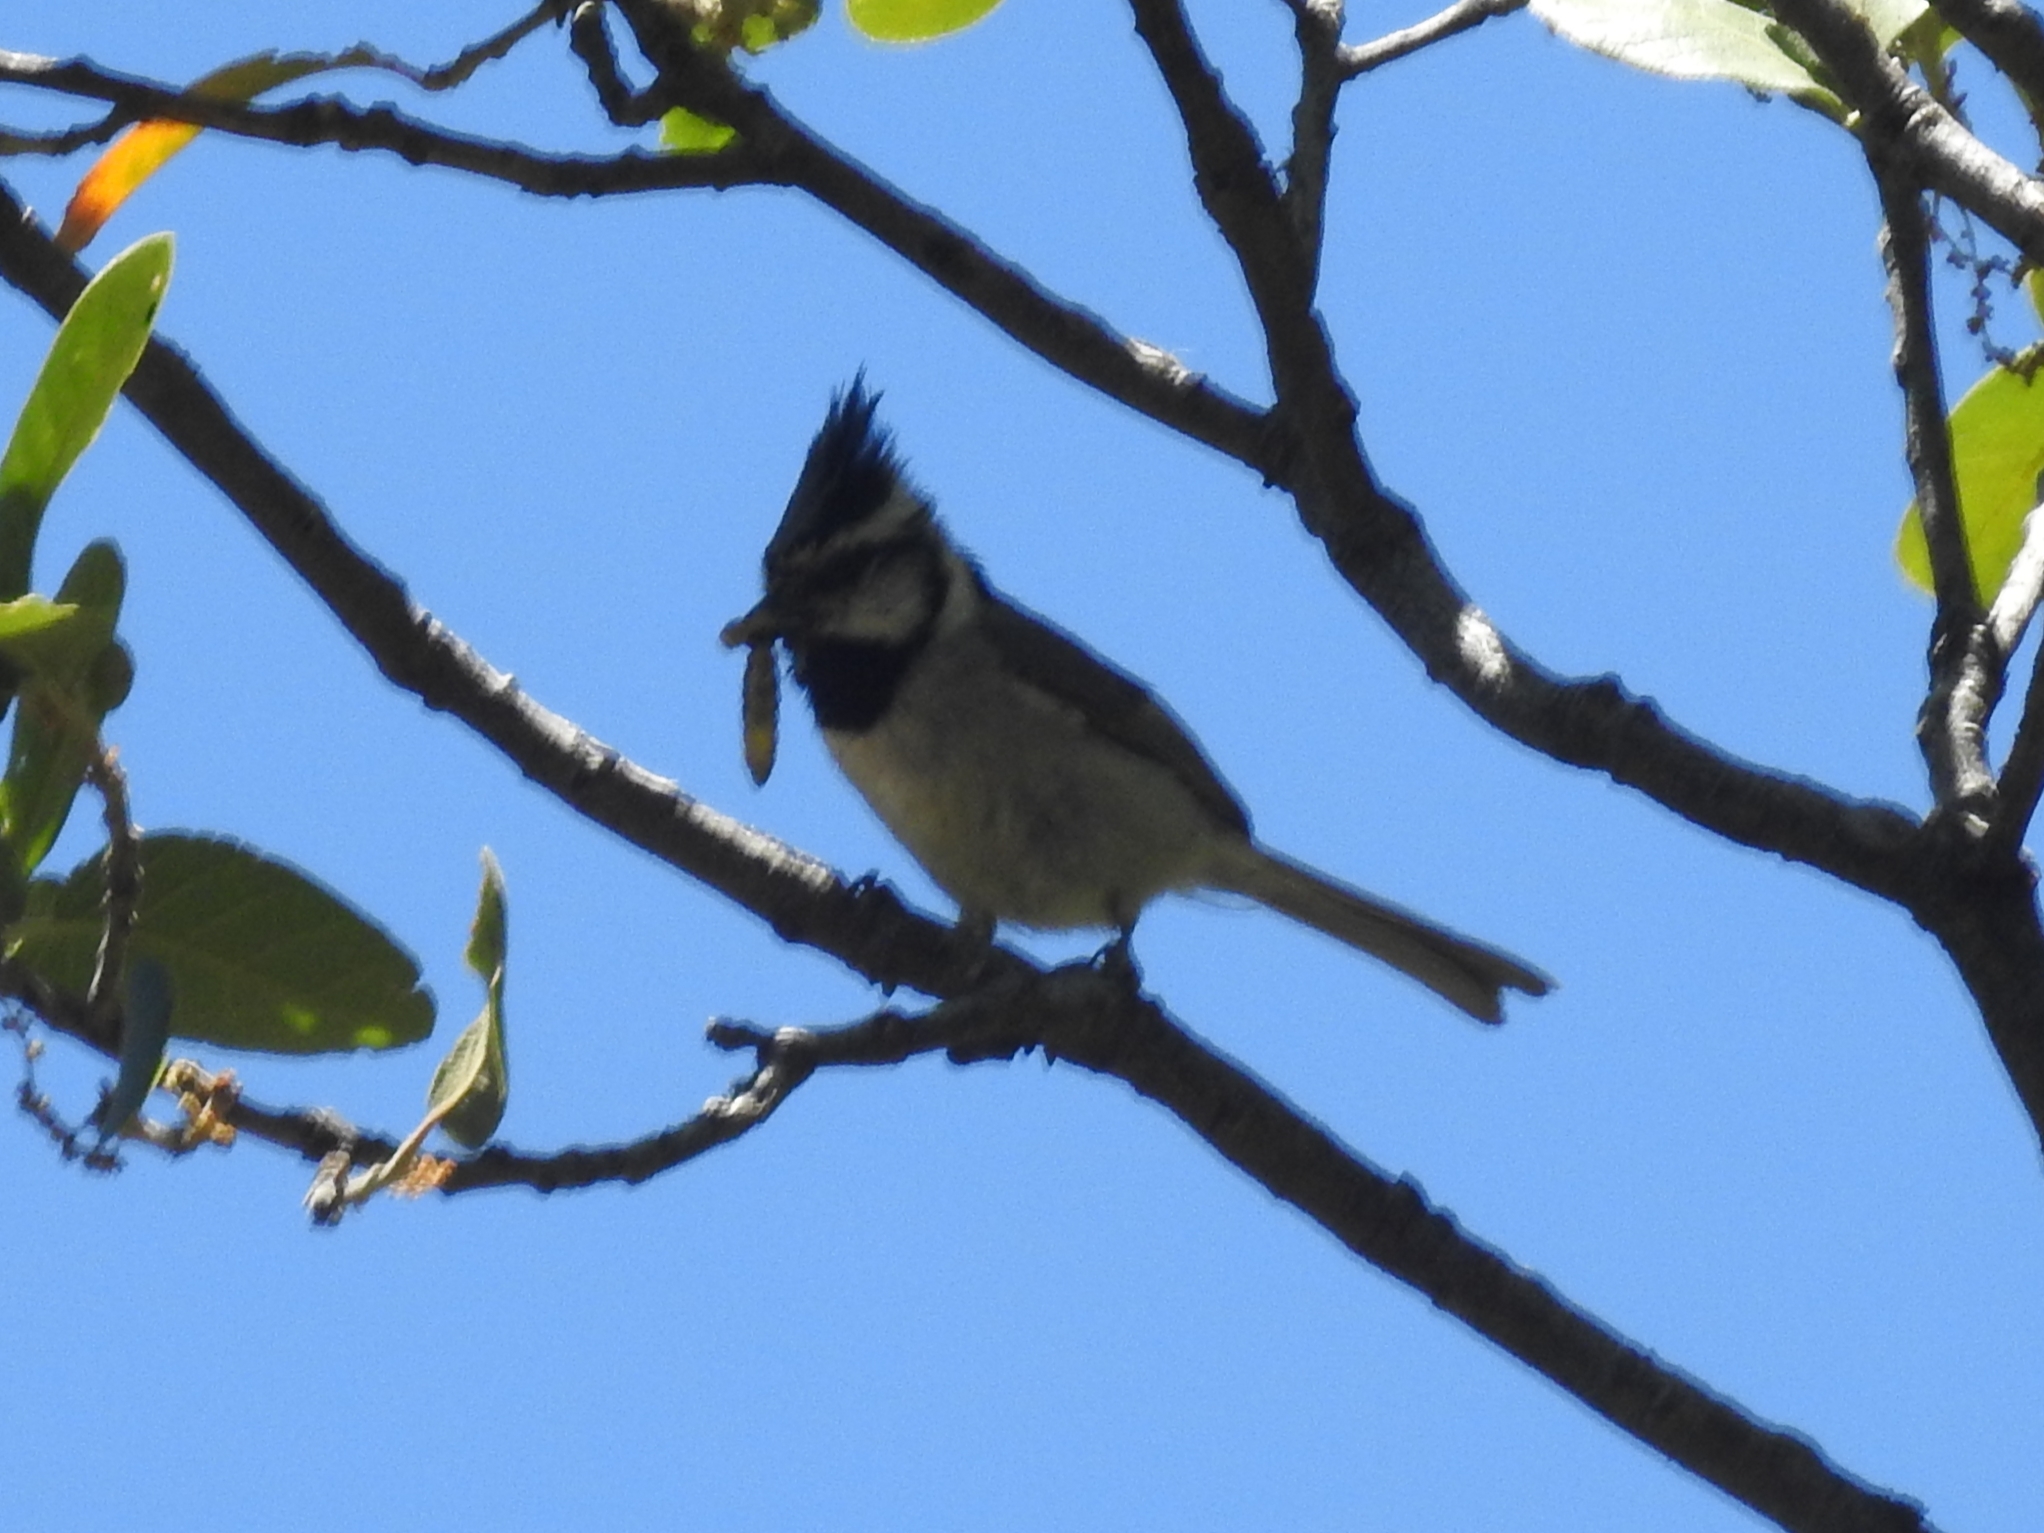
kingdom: Animalia
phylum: Chordata
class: Aves
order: Passeriformes
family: Paridae
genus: Baeolophus
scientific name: Baeolophus wollweberi
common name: Bridled titmouse
